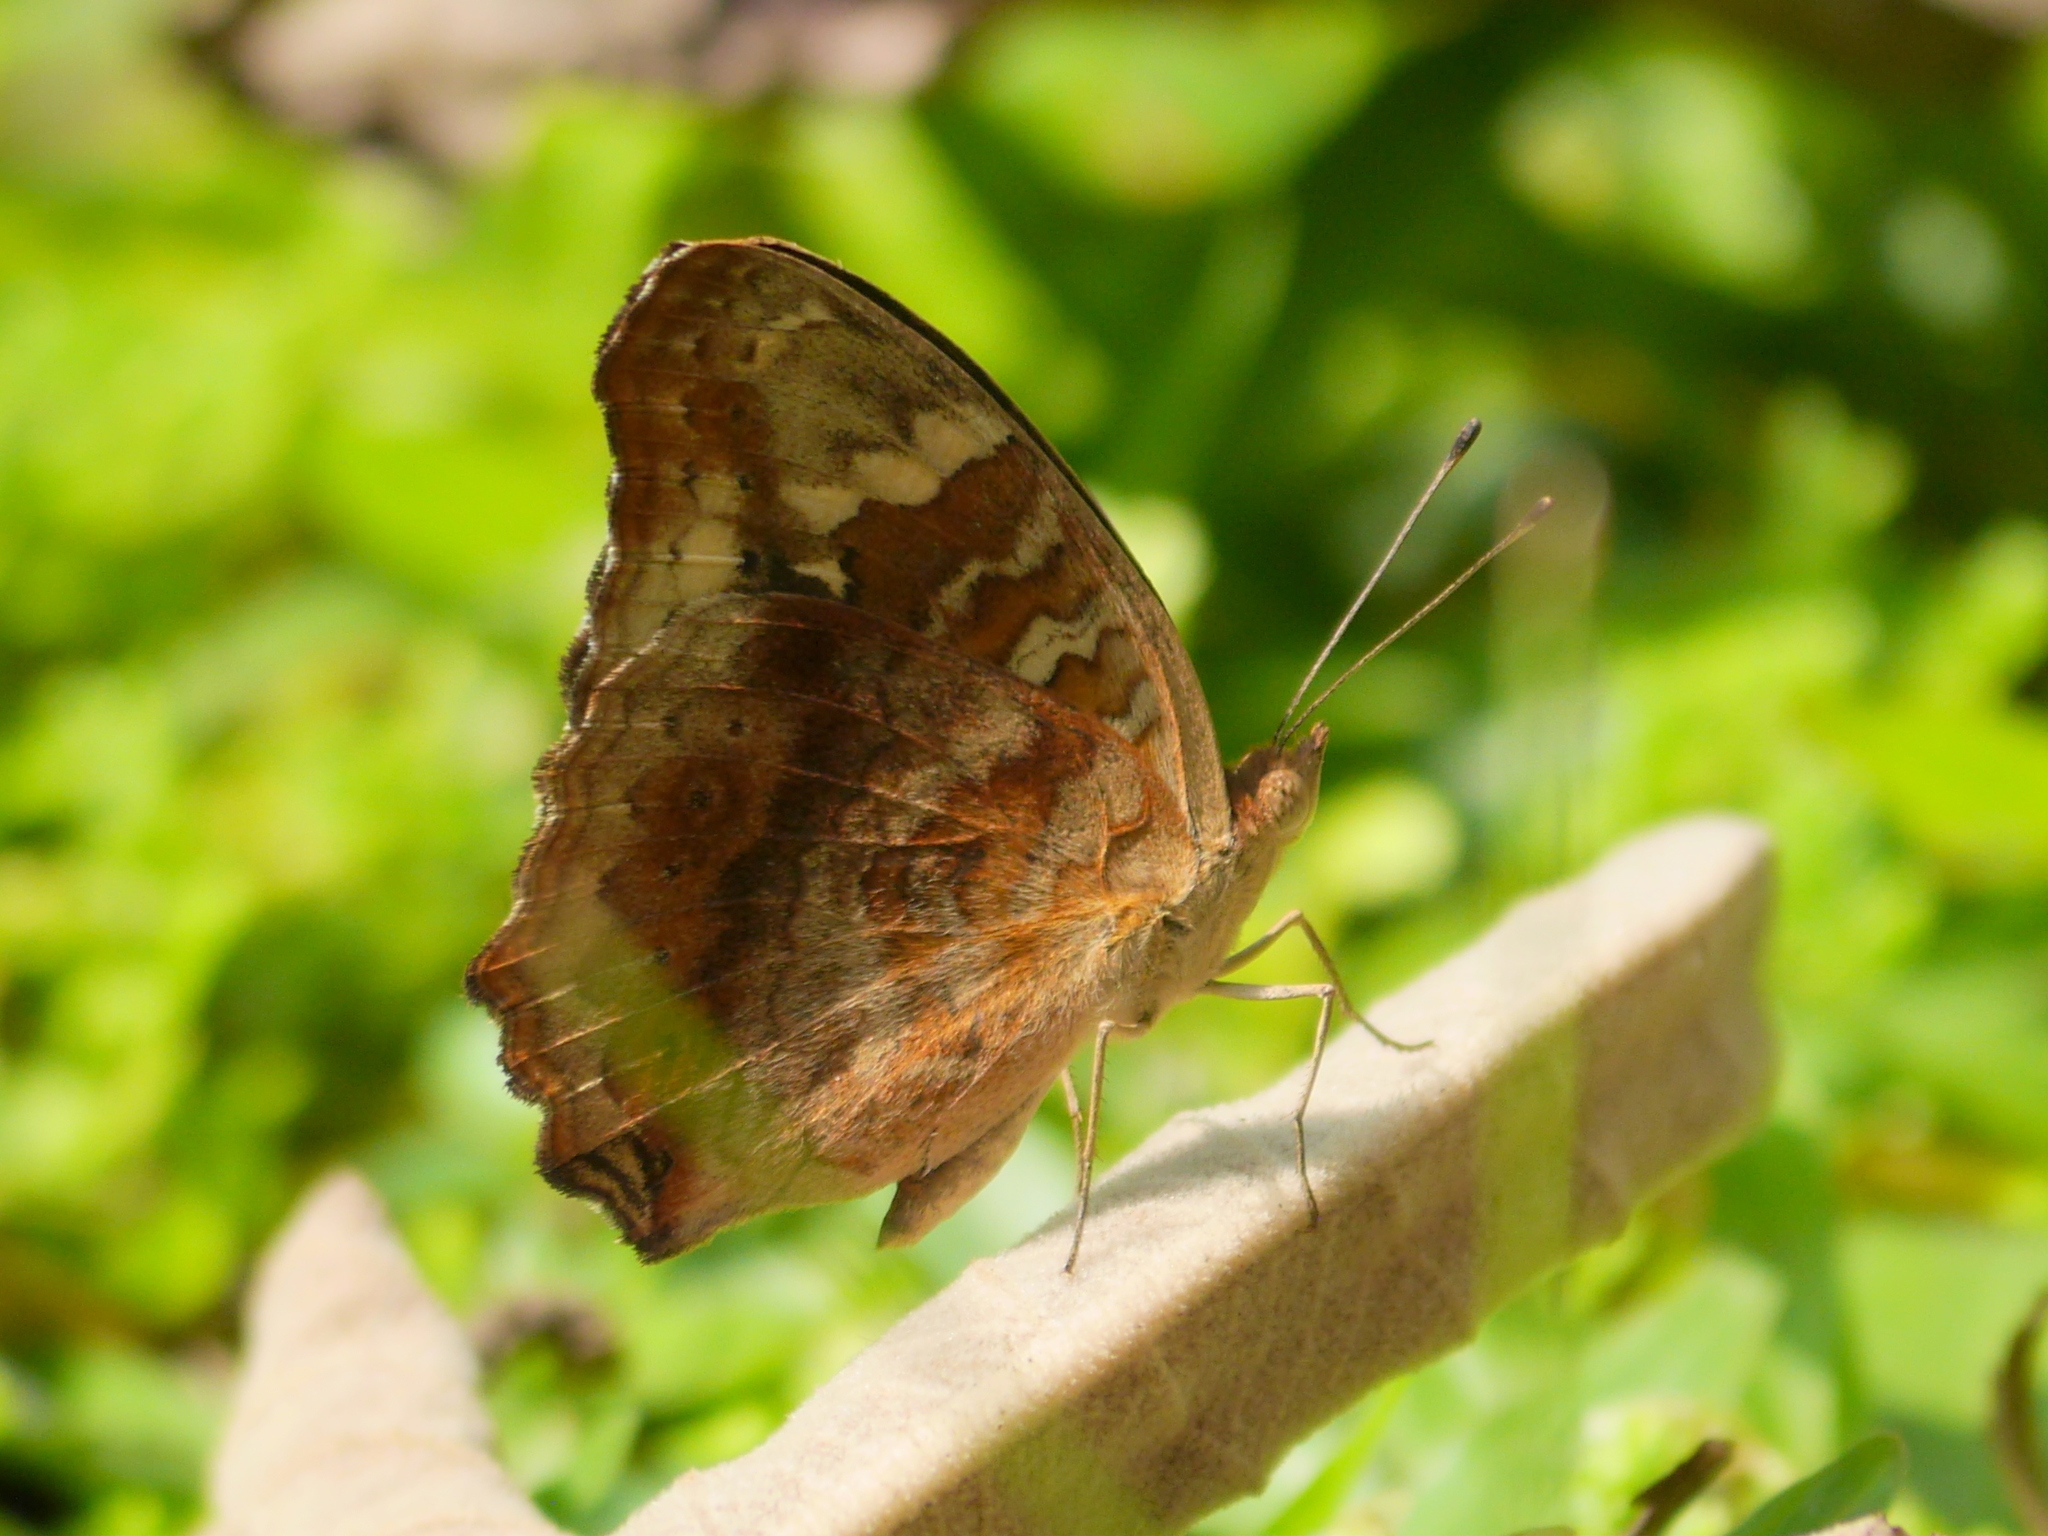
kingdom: Animalia
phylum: Arthropoda
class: Insecta
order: Lepidoptera
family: Nymphalidae
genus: Junonia
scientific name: Junonia erigone
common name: Northern argus
